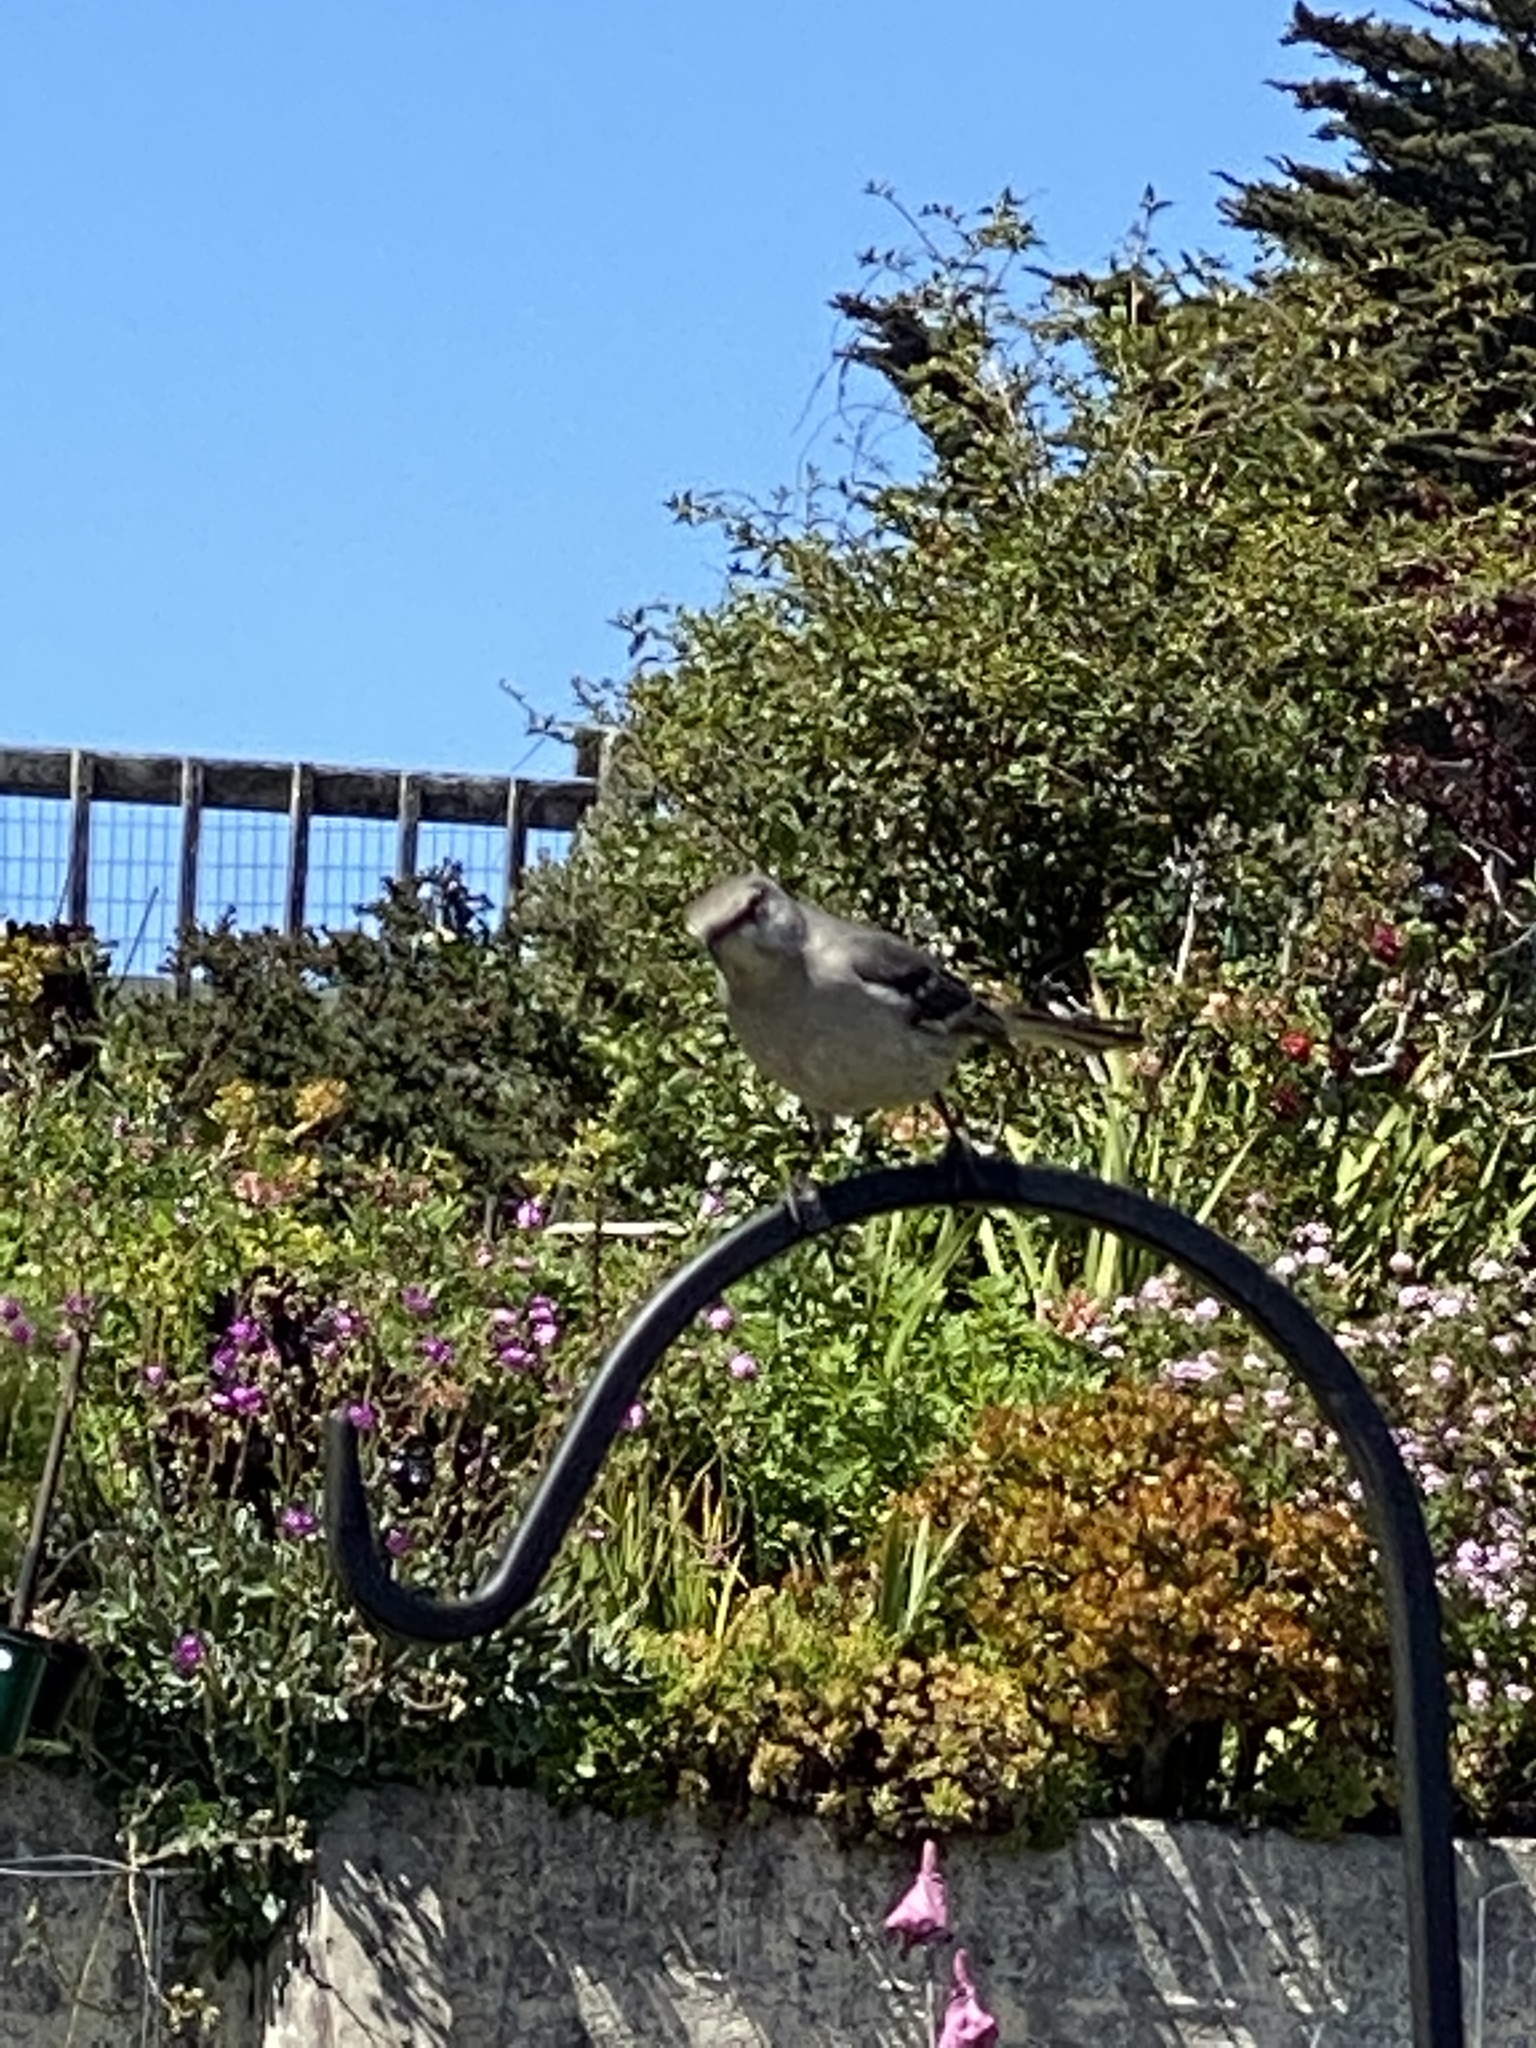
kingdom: Animalia
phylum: Chordata
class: Aves
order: Passeriformes
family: Mimidae
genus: Mimus
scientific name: Mimus polyglottos
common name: Northern mockingbird
